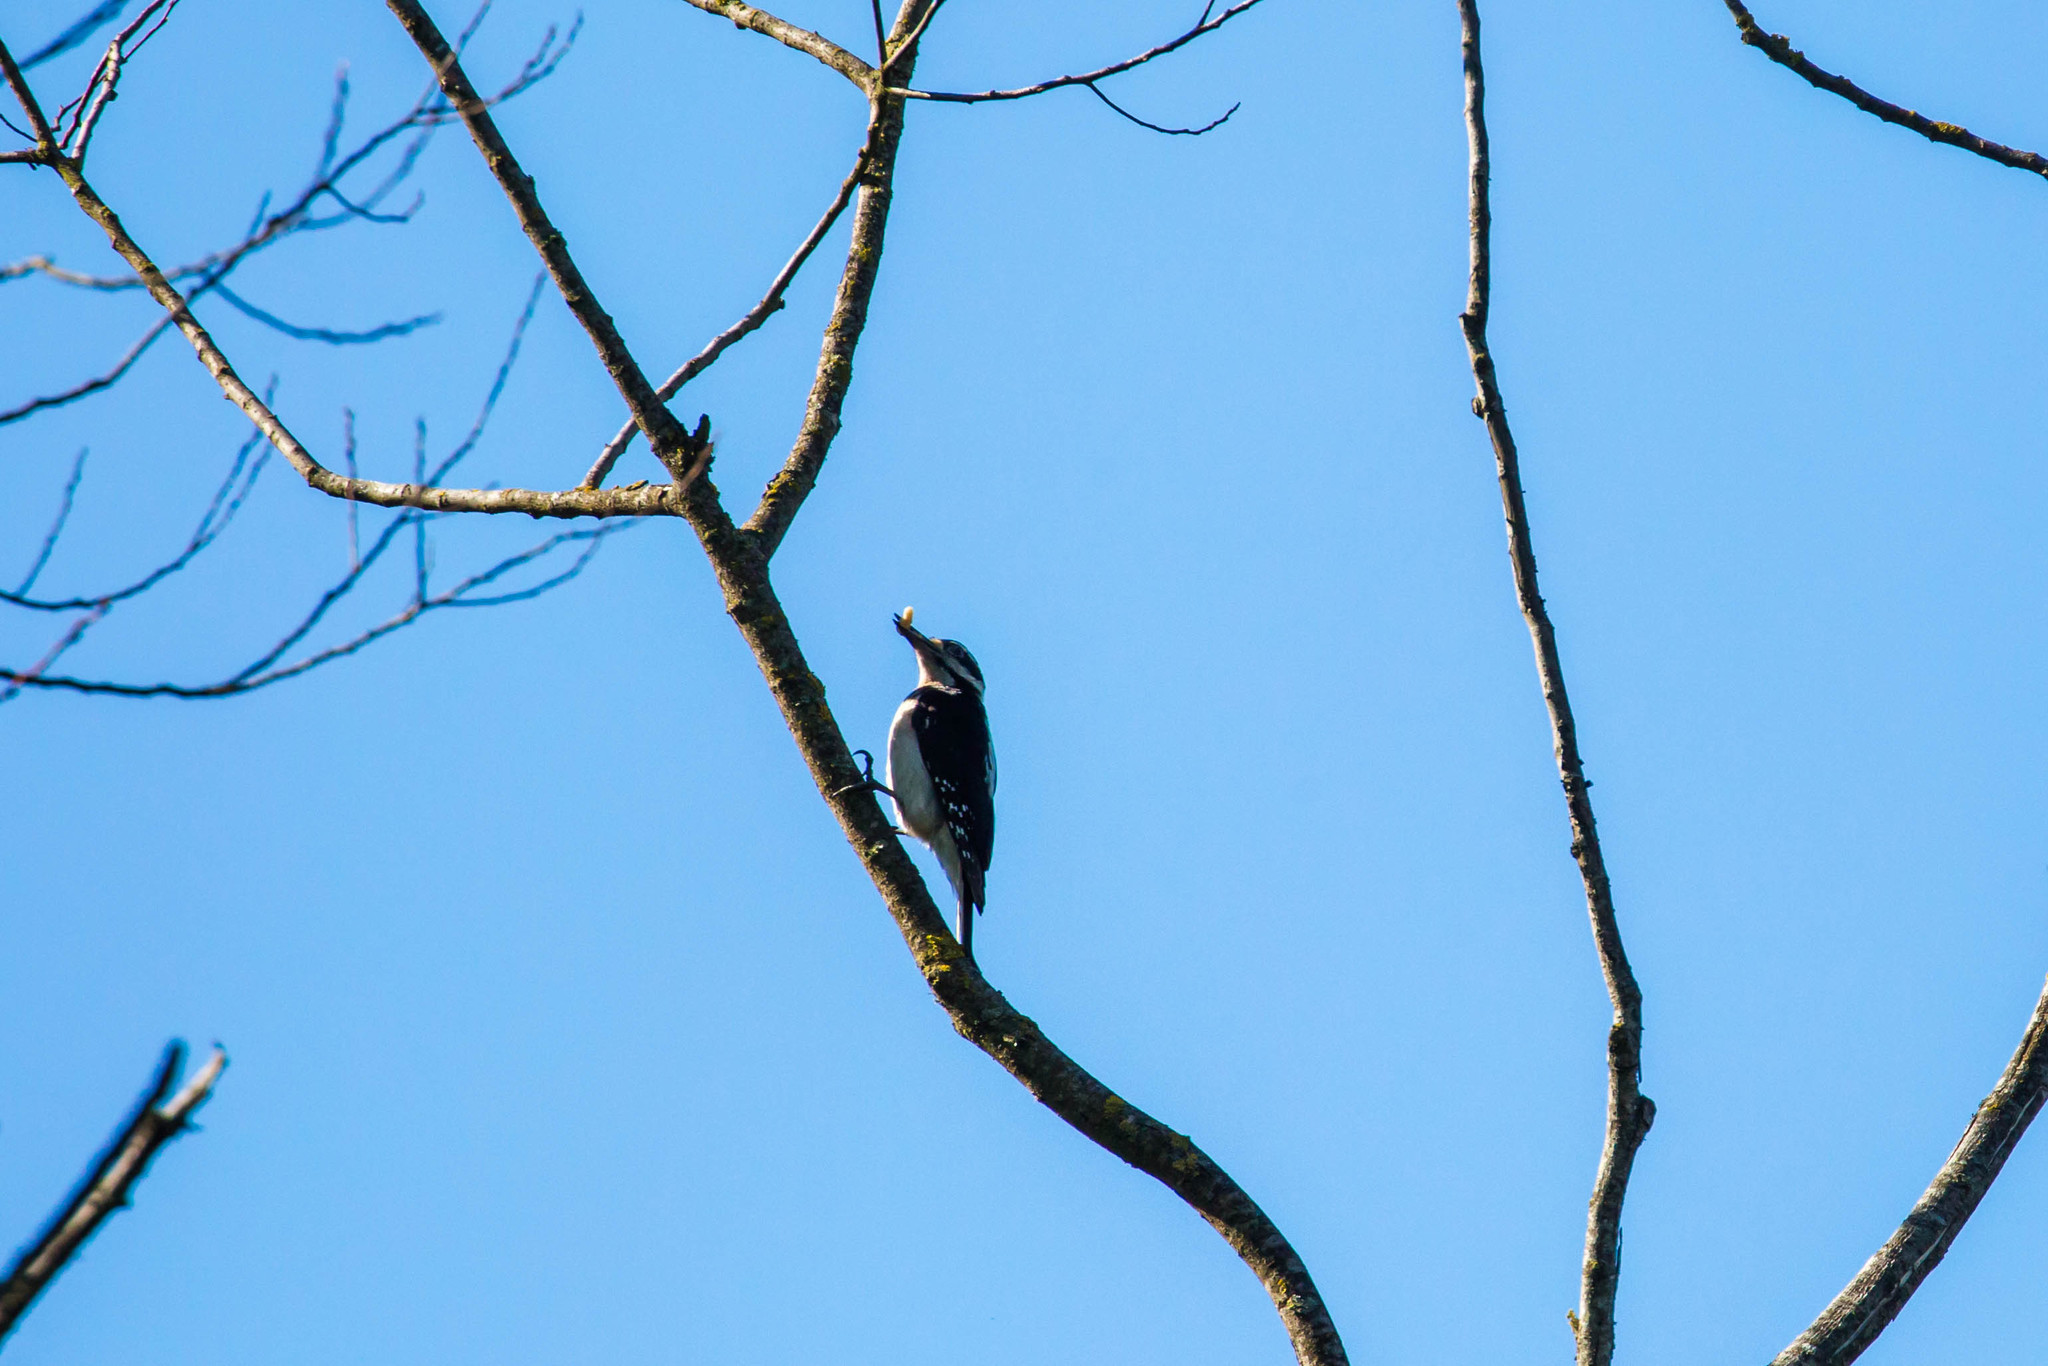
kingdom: Animalia
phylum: Chordata
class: Aves
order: Piciformes
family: Picidae
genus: Leuconotopicus
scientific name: Leuconotopicus villosus
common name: Hairy woodpecker
